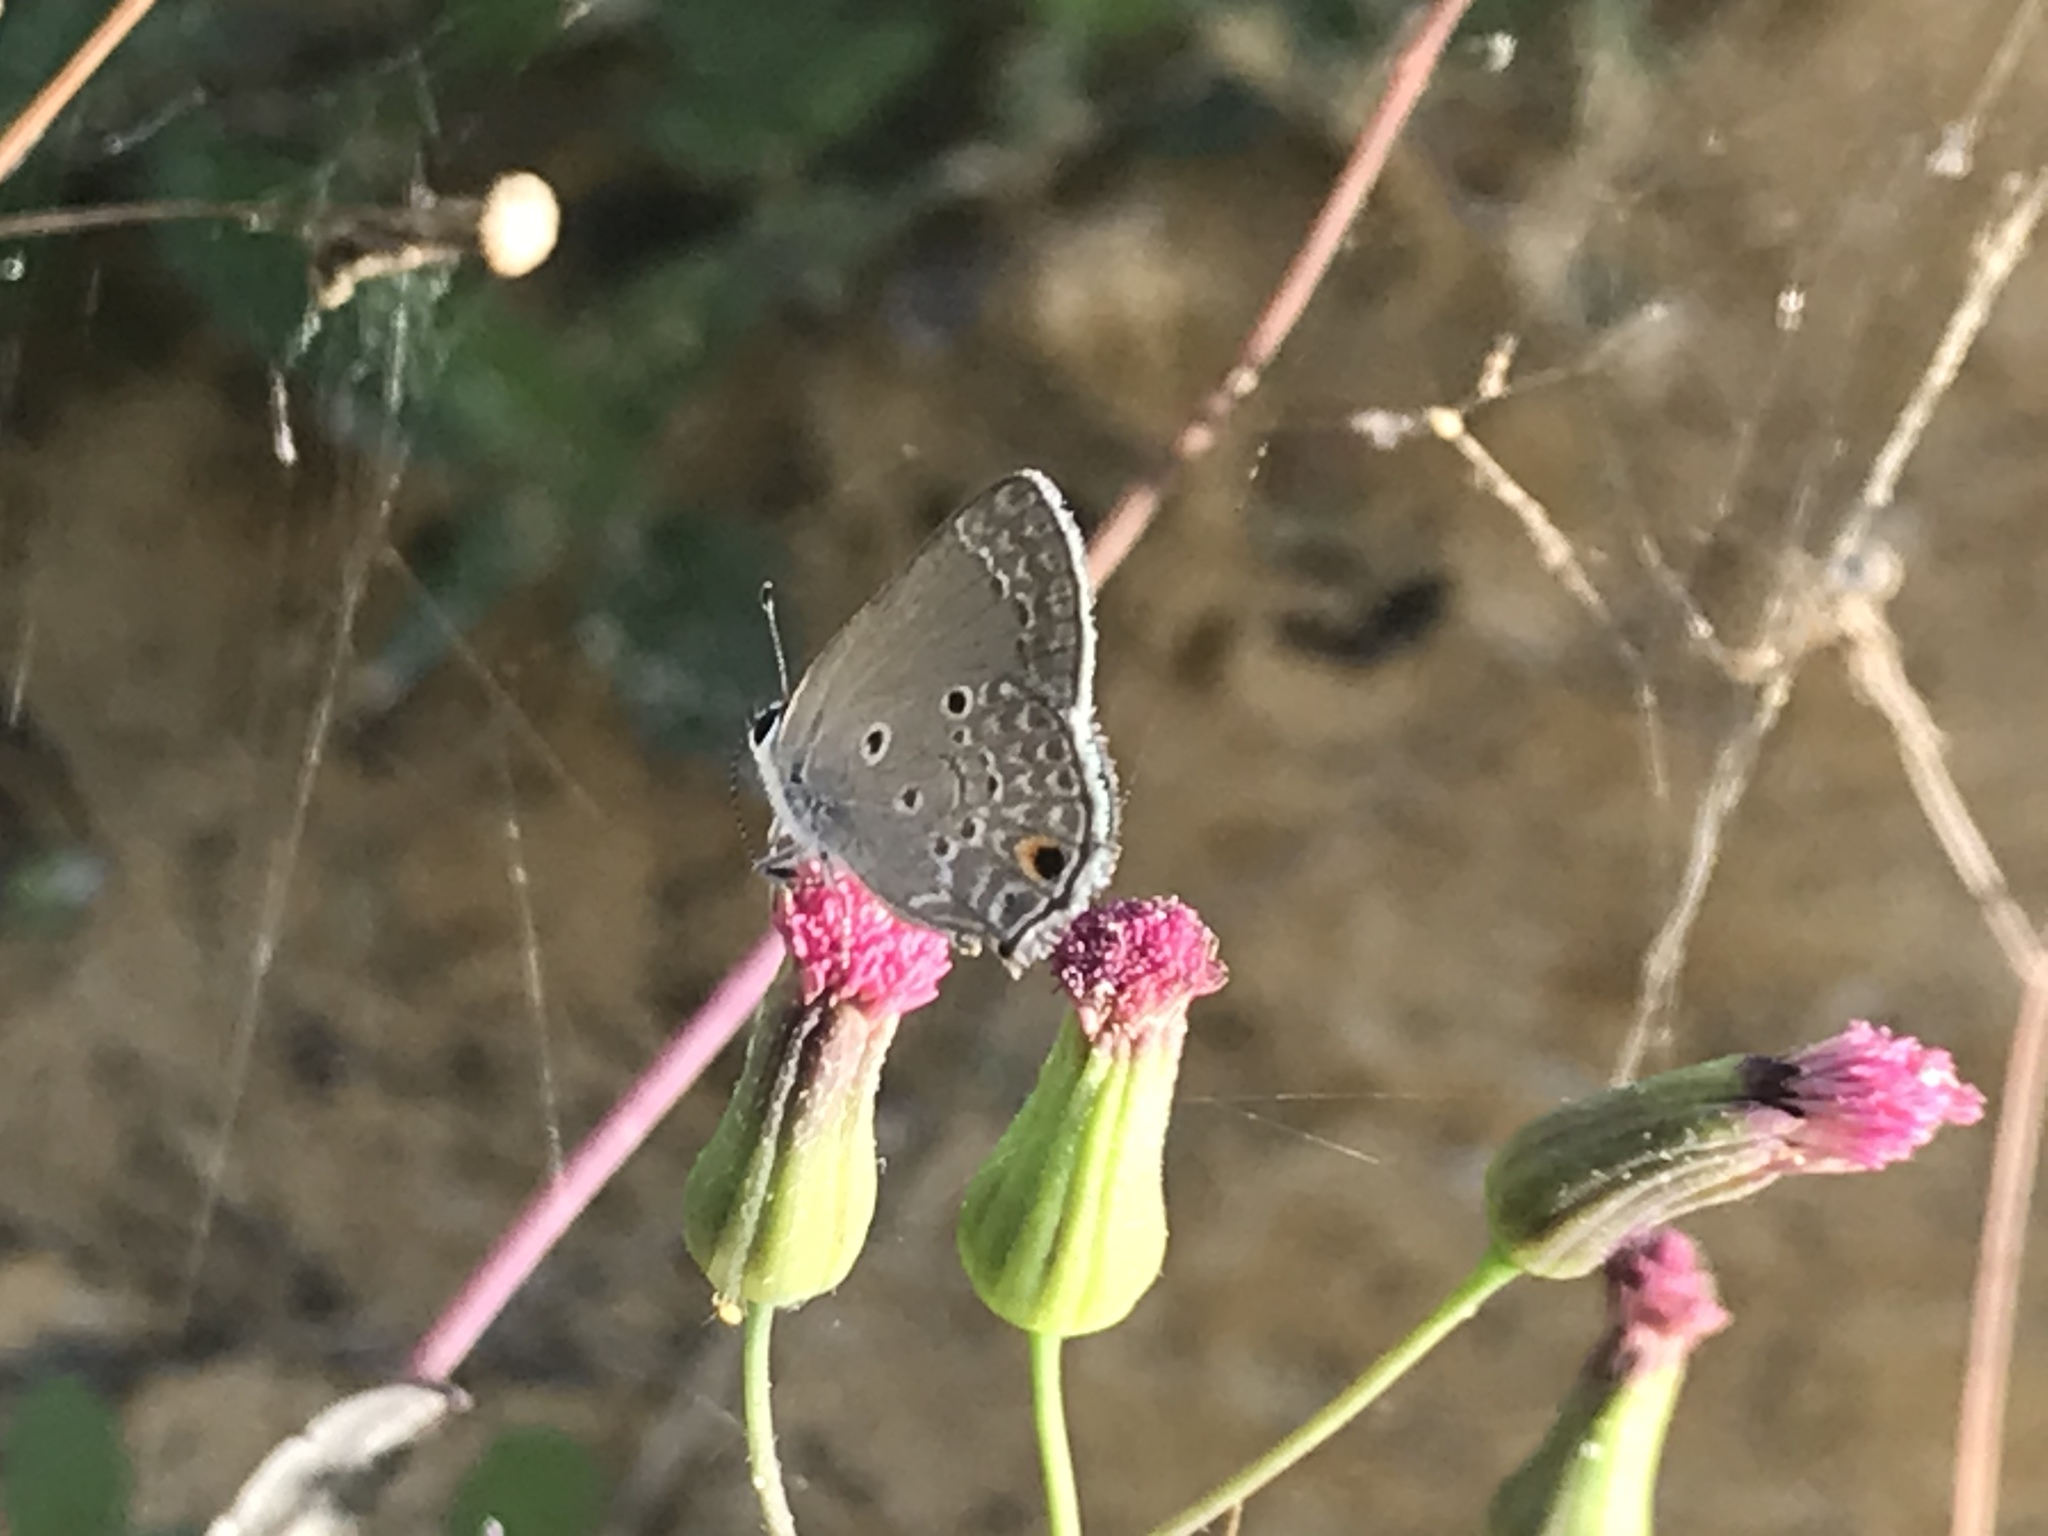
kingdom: Animalia
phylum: Arthropoda
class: Insecta
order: Lepidoptera
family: Lycaenidae
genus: Strymon
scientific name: Strymon bubastus
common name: Bubastes hairstreak
